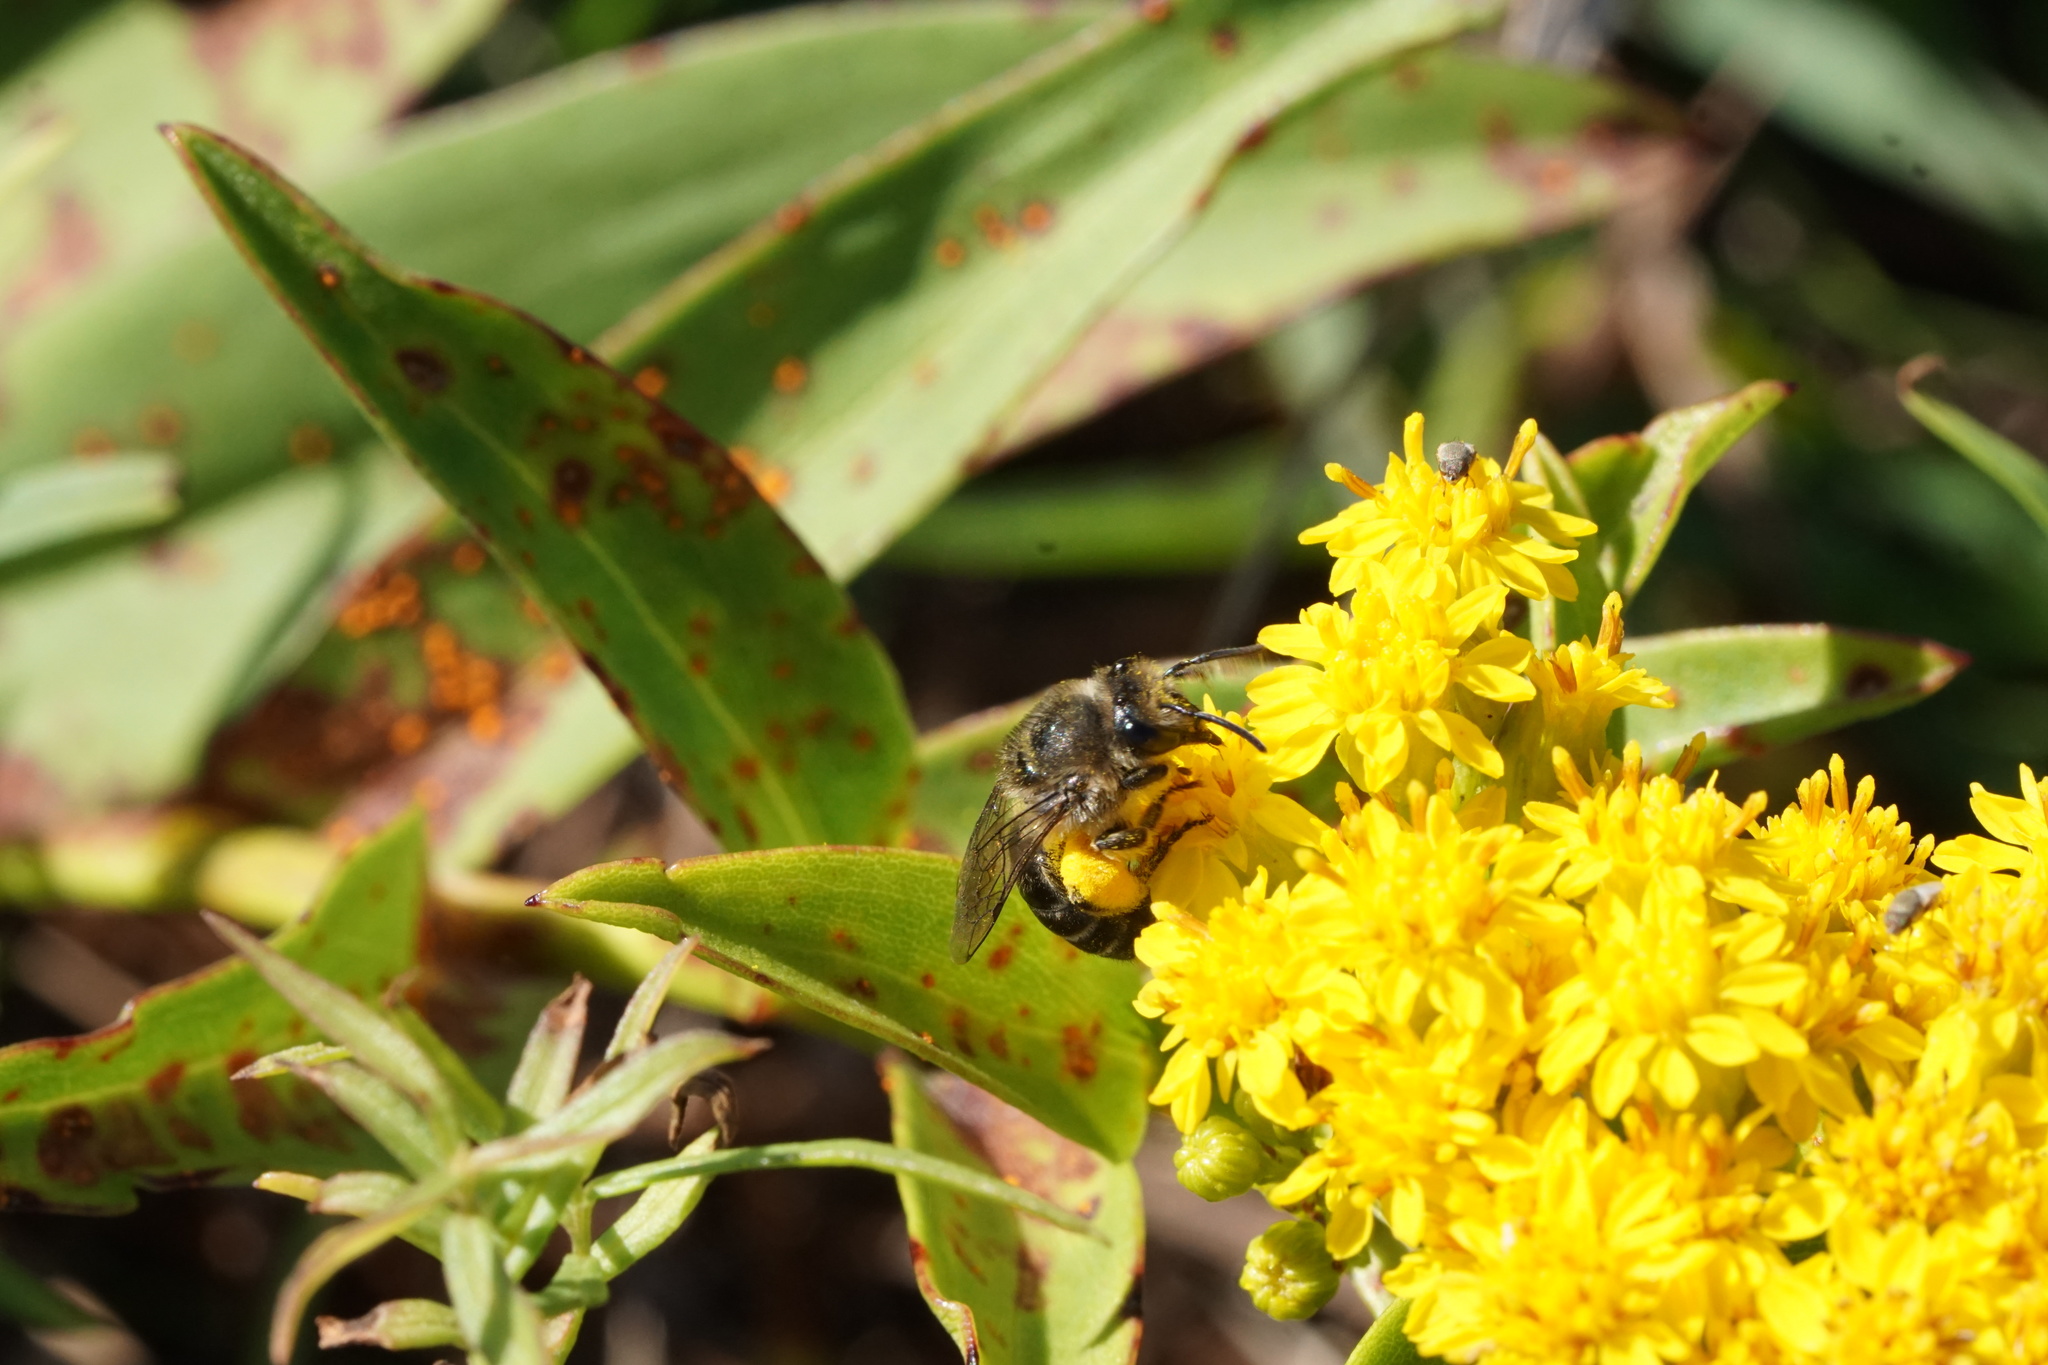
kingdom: Animalia
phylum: Arthropoda
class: Insecta
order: Hymenoptera
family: Colletidae
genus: Colletes
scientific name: Colletes compactus
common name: Aster cellophane bee
